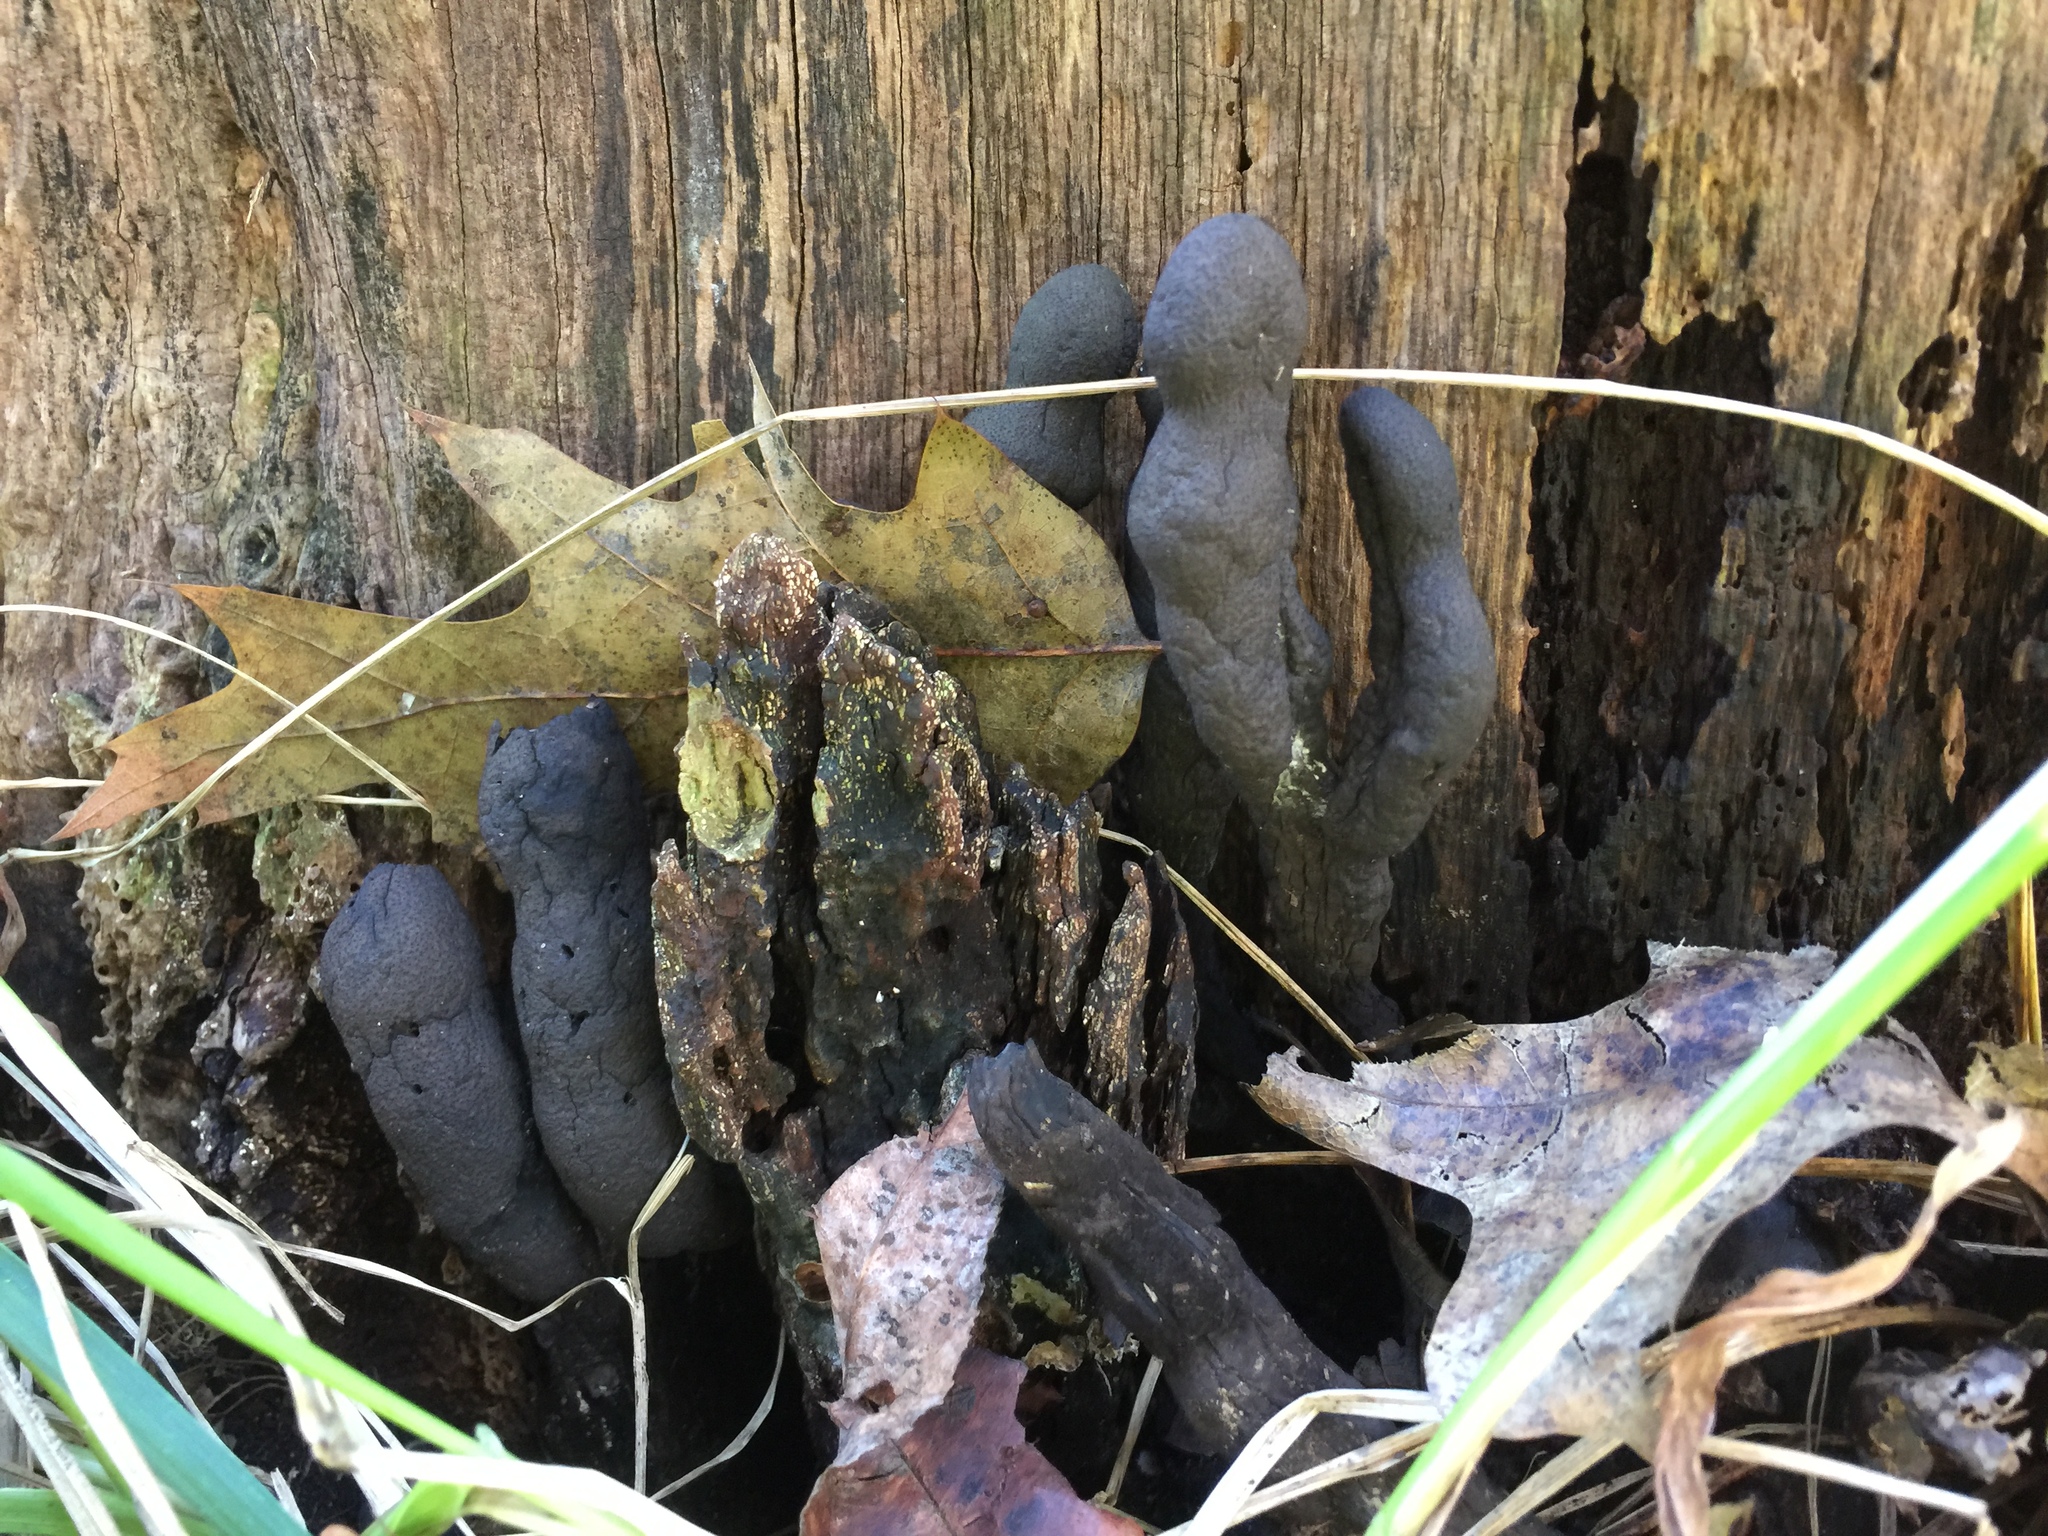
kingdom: Fungi
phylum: Ascomycota
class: Sordariomycetes
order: Xylariales
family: Xylariaceae
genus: Xylaria
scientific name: Xylaria polymorpha
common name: Dead man's fingers
